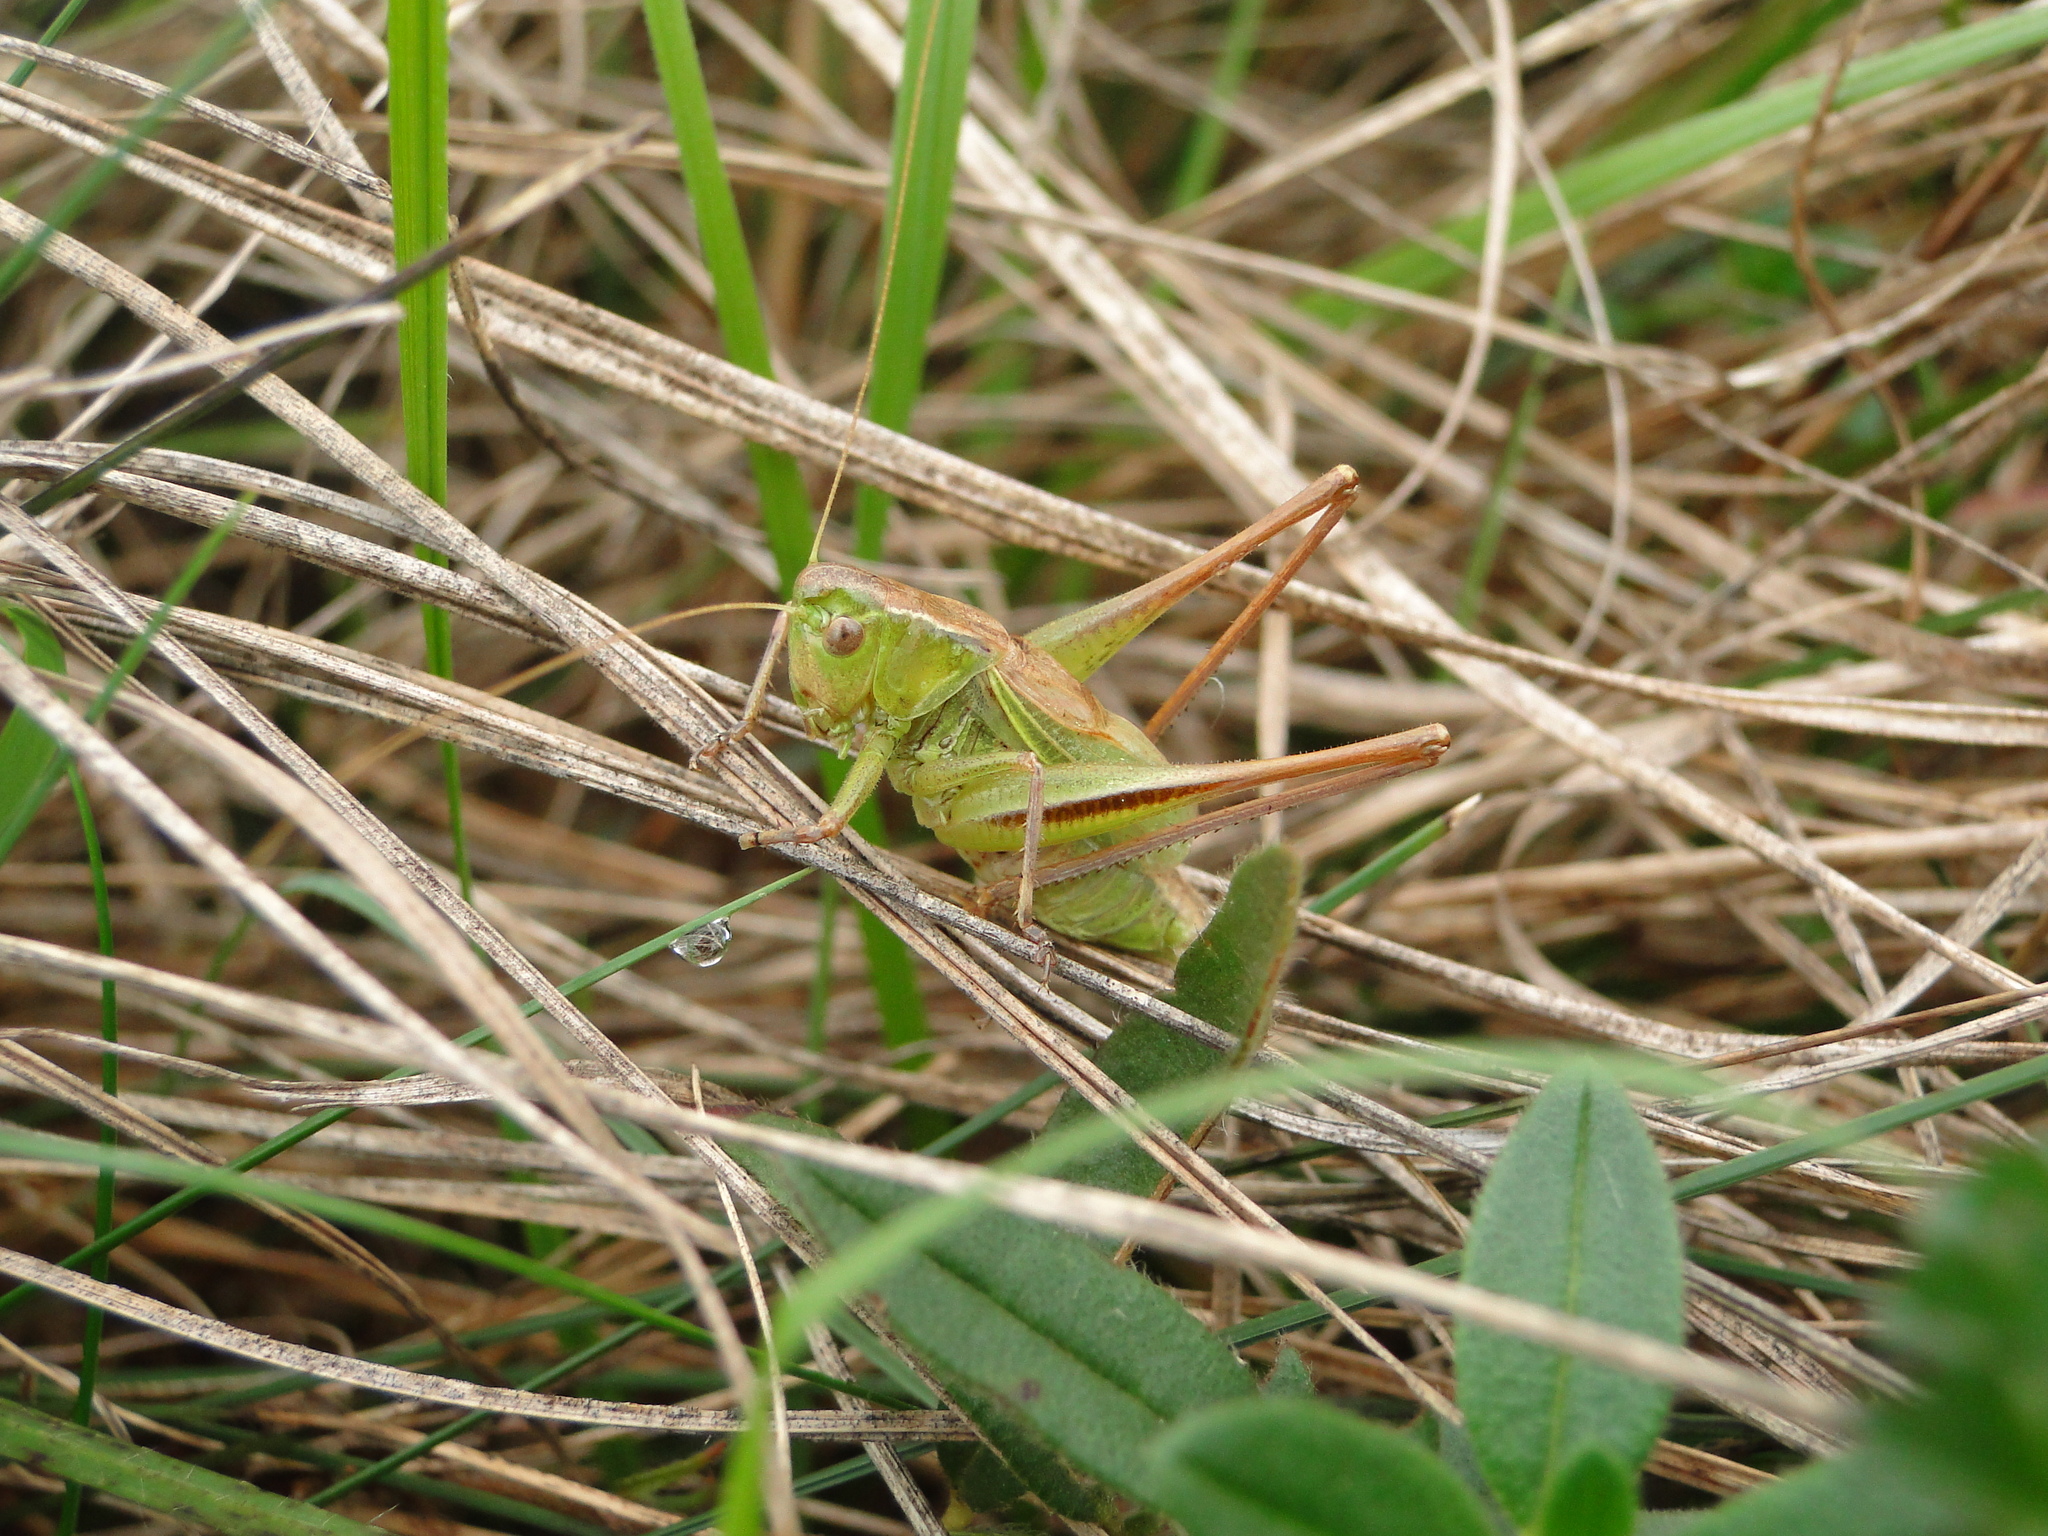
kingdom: Animalia
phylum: Arthropoda
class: Insecta
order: Orthoptera
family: Tettigoniidae
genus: Bicolorana
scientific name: Bicolorana bicolor
